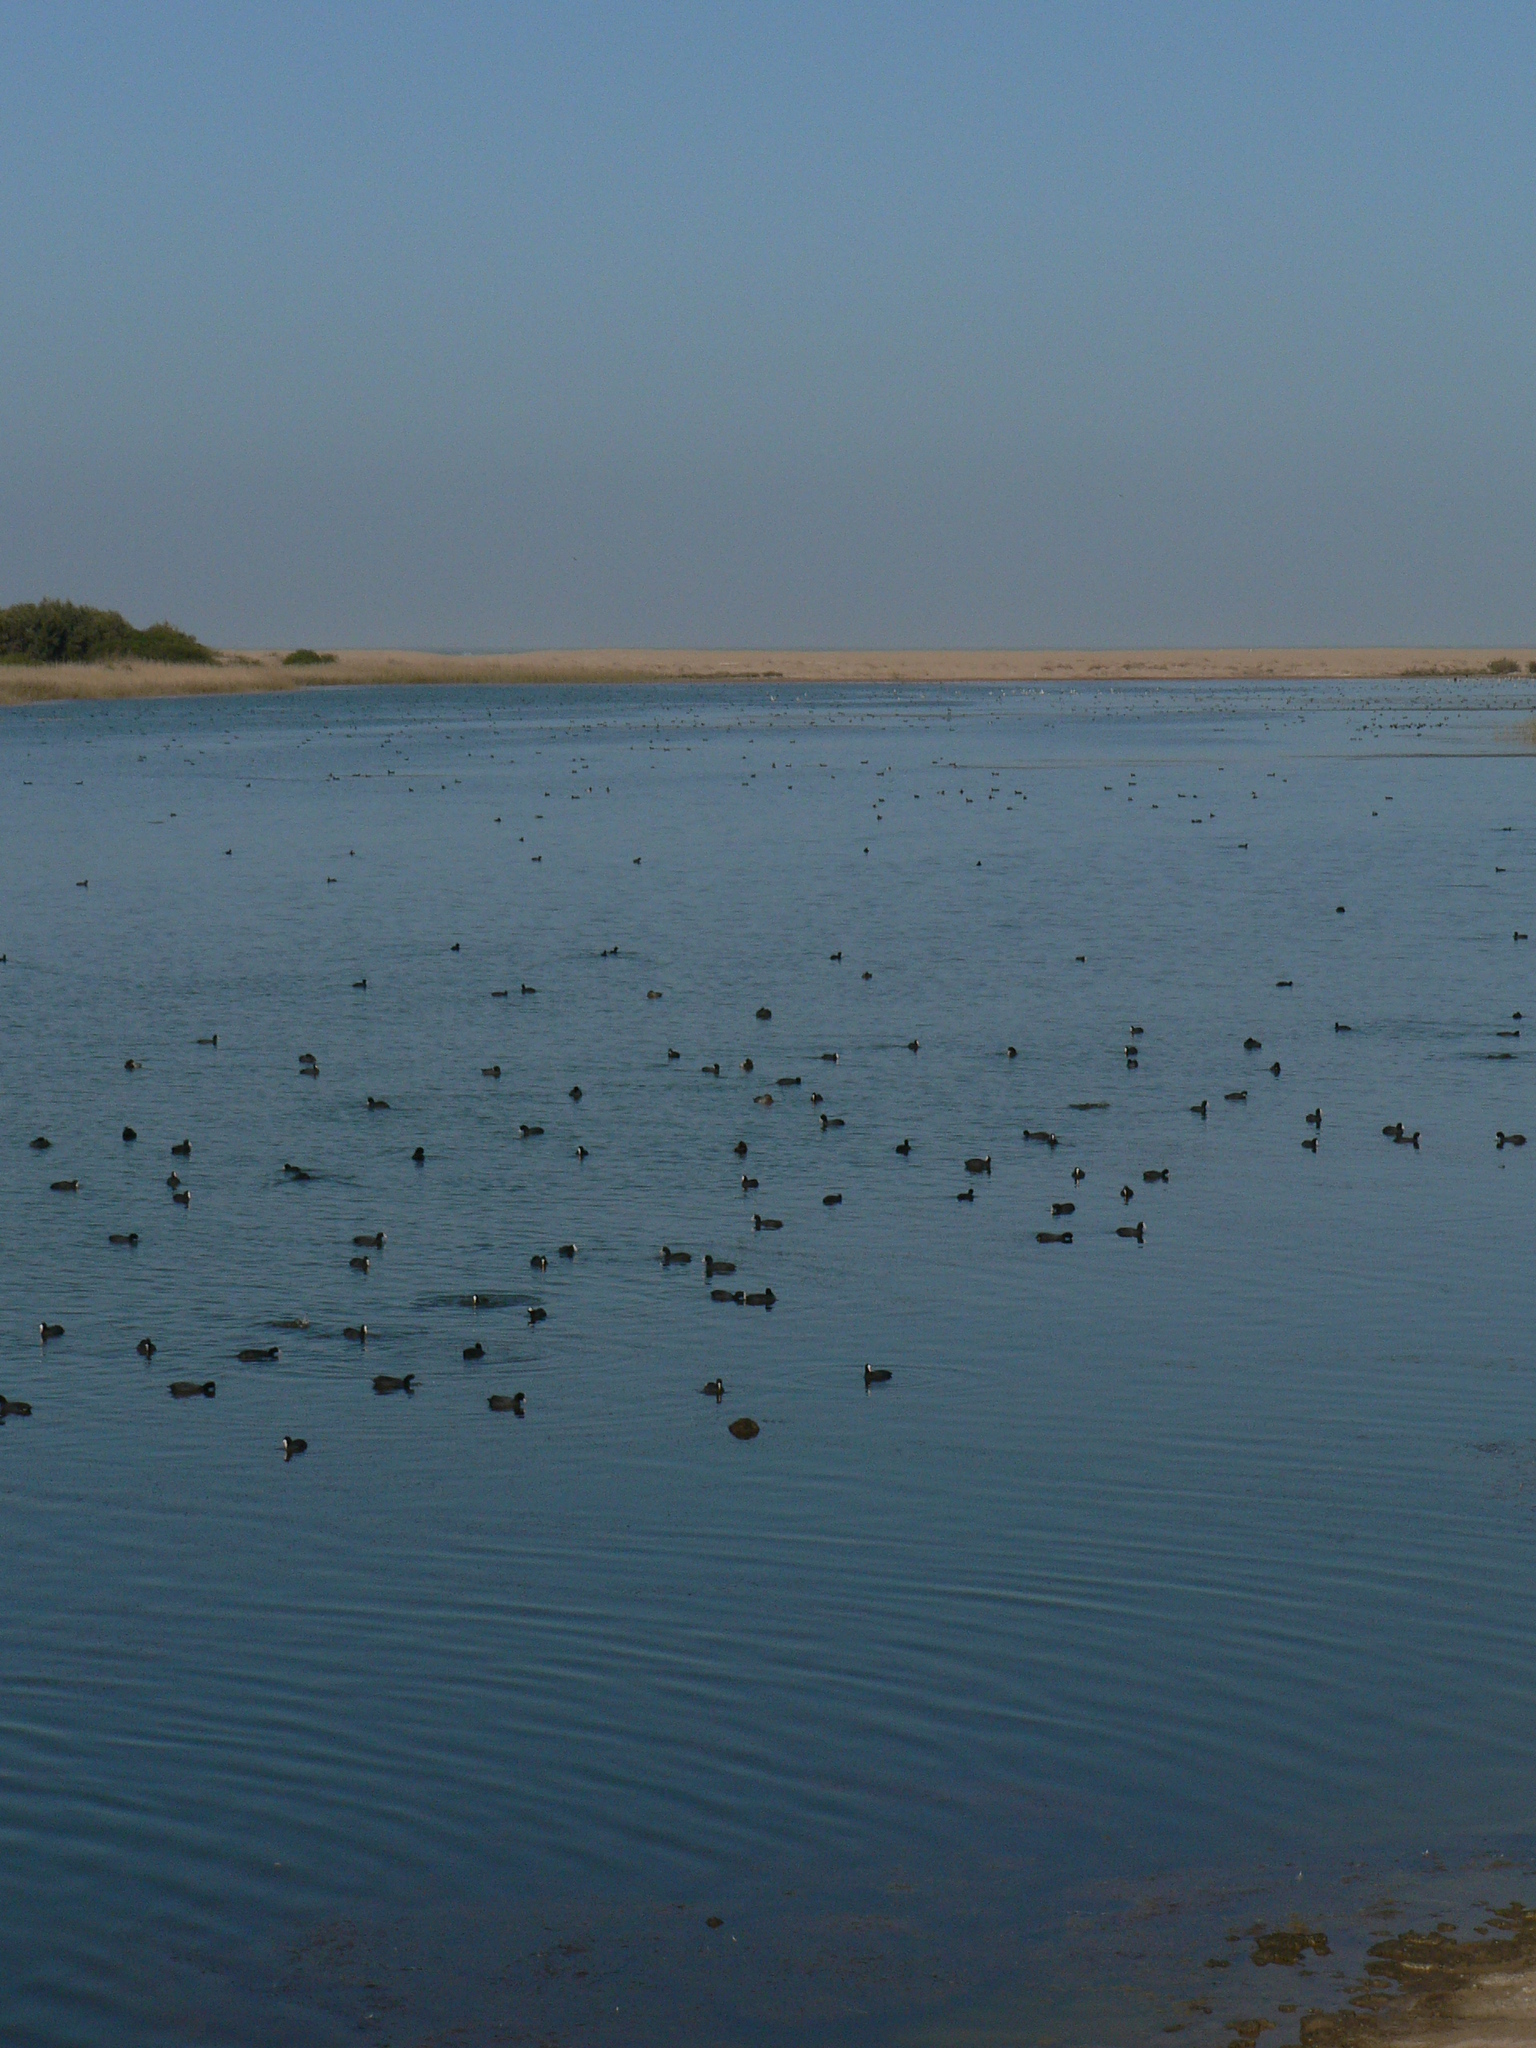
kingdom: Animalia
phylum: Chordata
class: Aves
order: Gruiformes
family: Rallidae
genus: Fulica
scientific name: Fulica atra
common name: Eurasian coot
